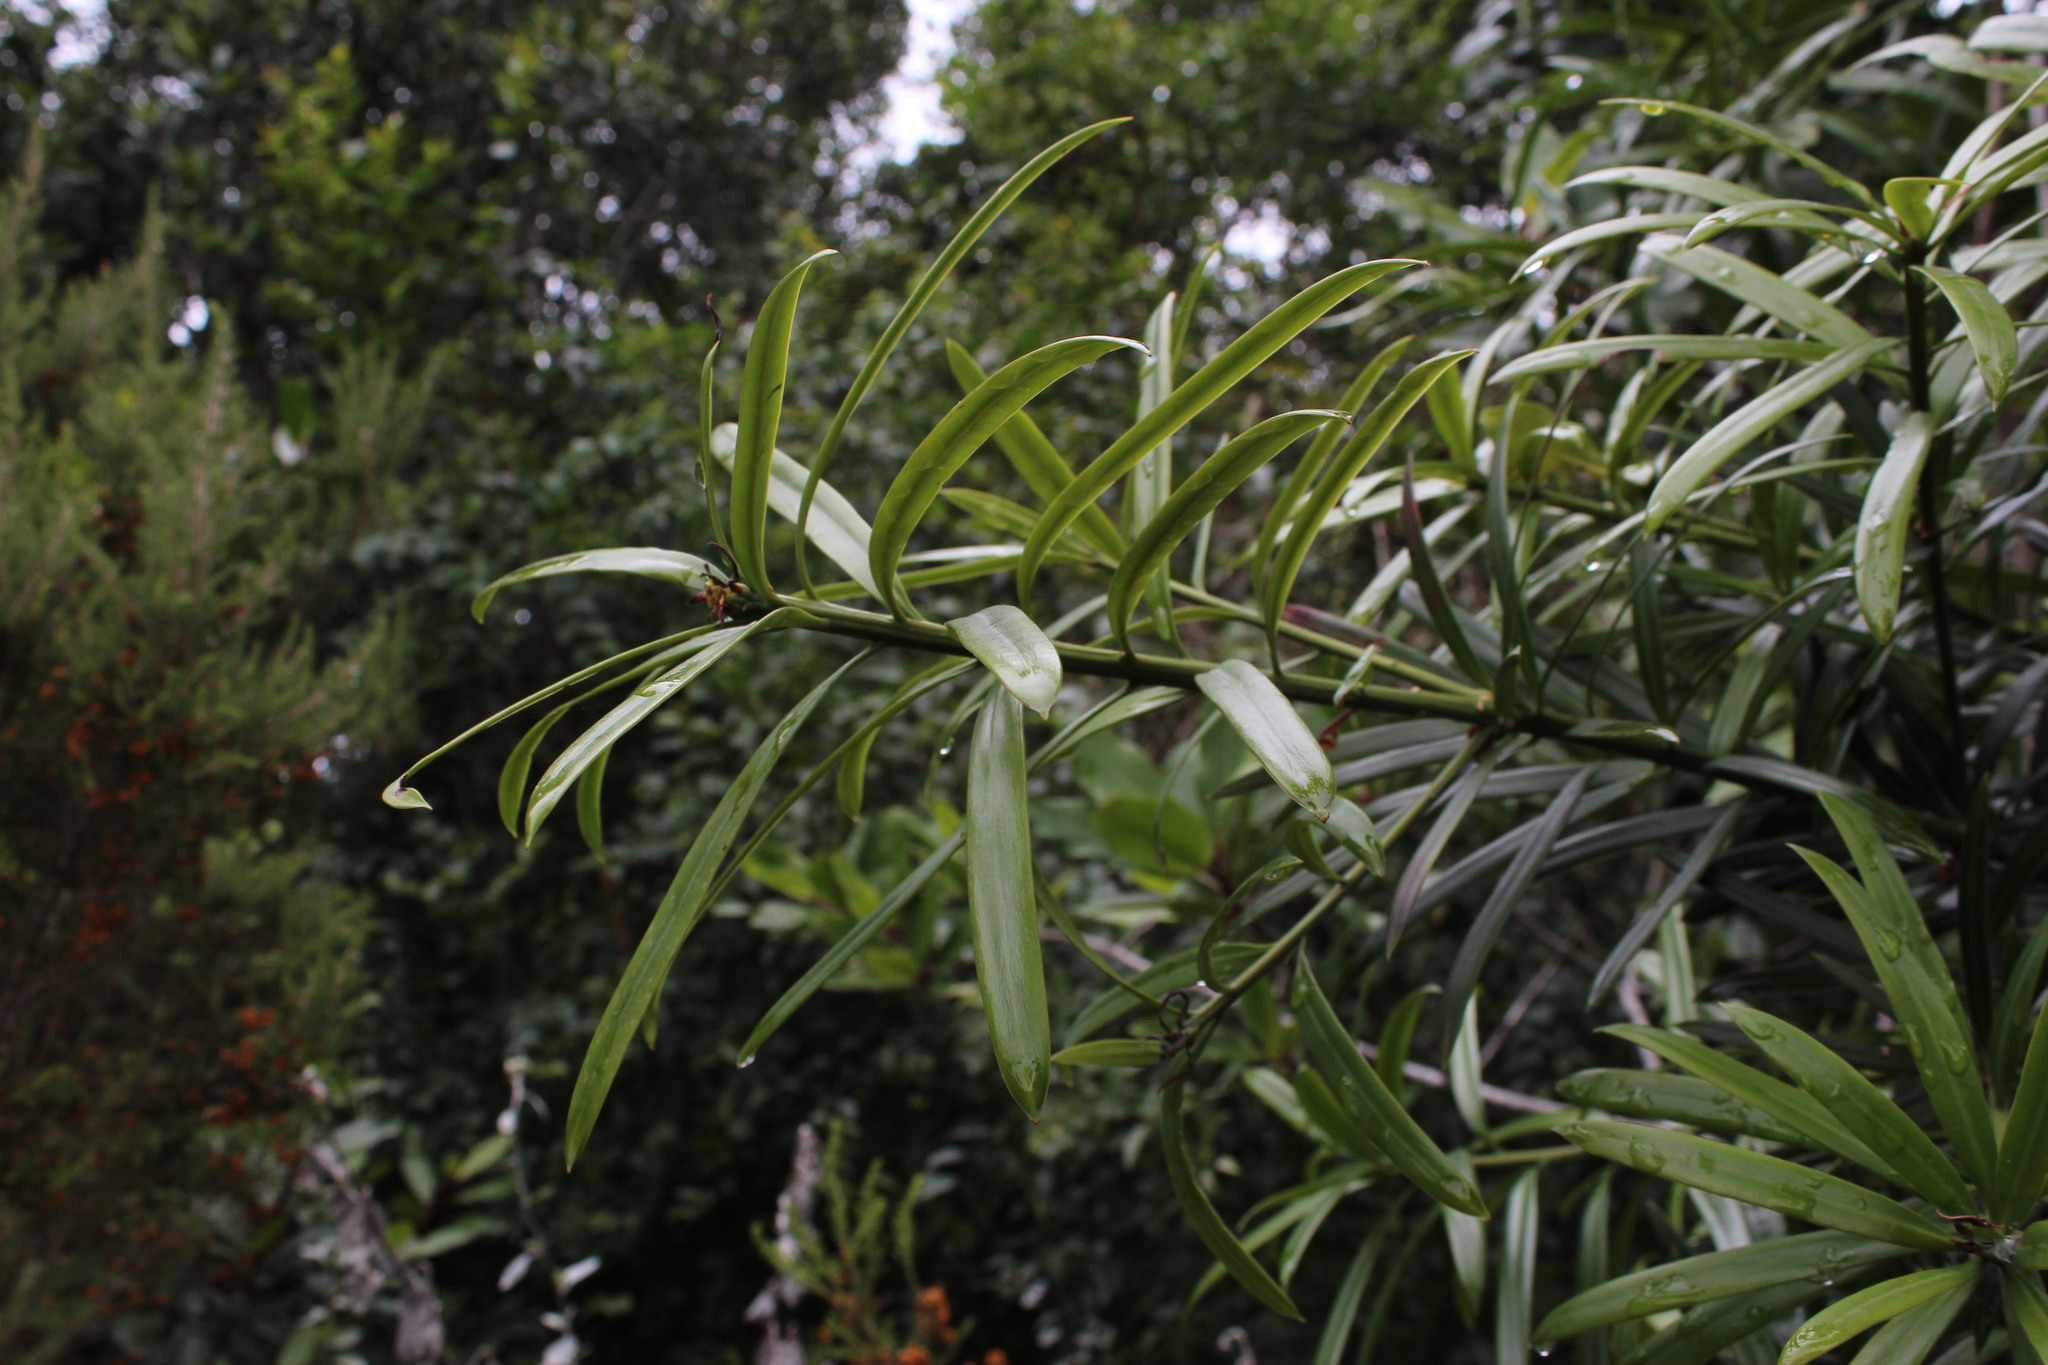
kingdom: Plantae
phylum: Tracheophyta
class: Pinopsida
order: Pinales
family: Podocarpaceae
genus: Podocarpus
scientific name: Podocarpus latifolius
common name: True yellowwood
